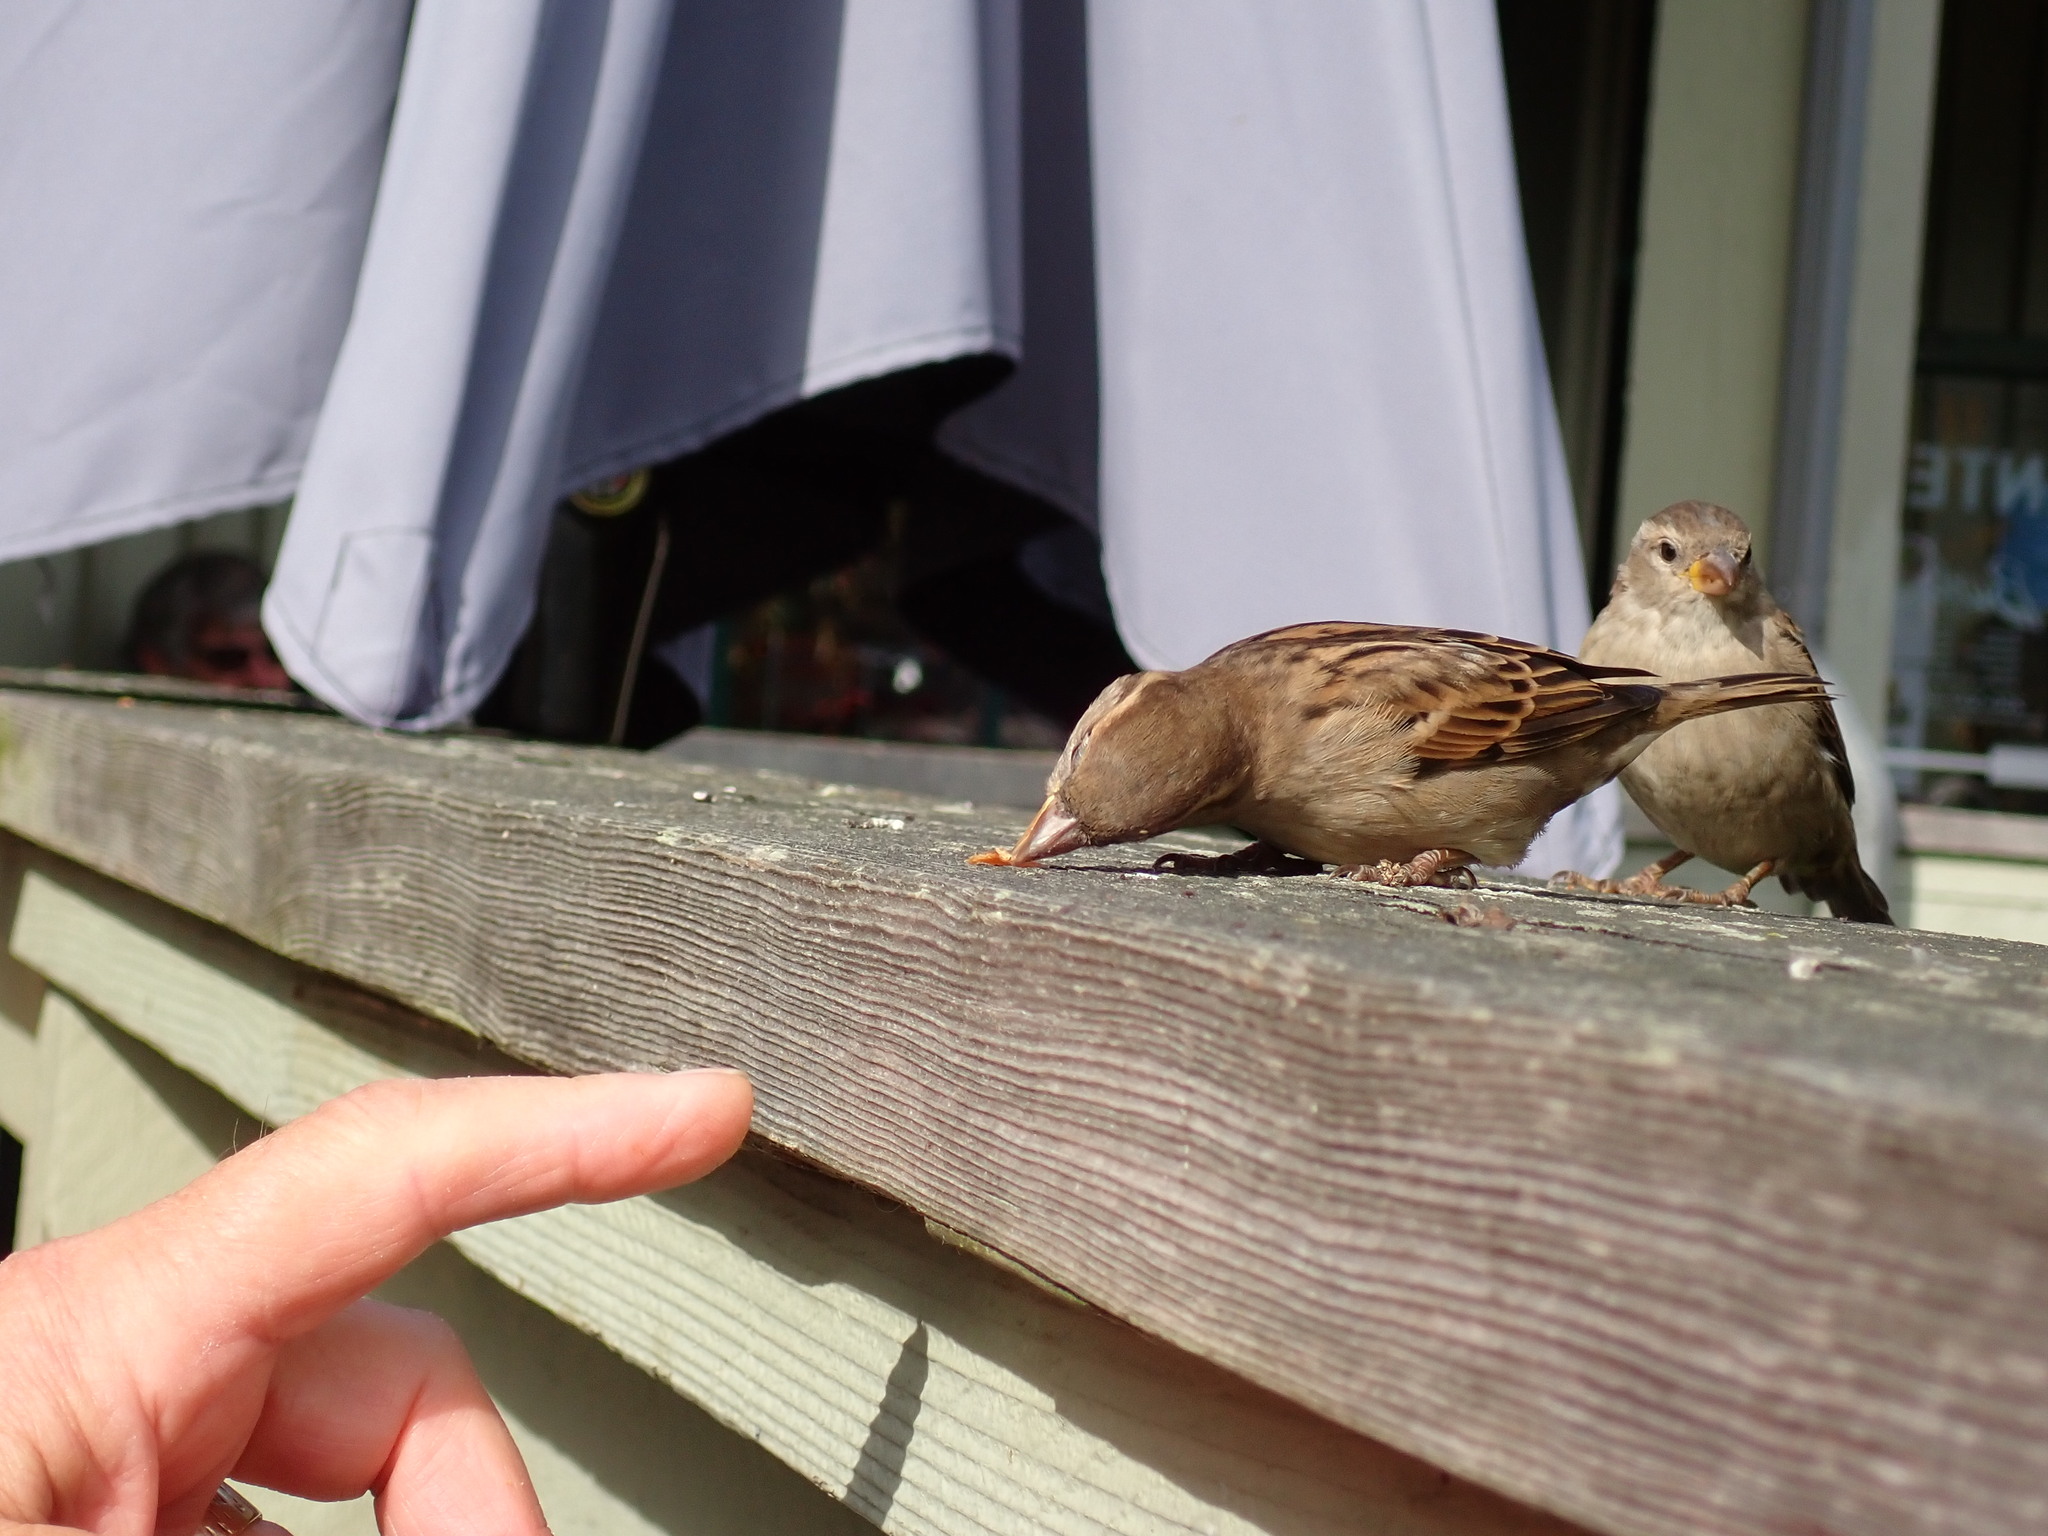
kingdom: Animalia
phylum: Chordata
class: Aves
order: Passeriformes
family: Passeridae
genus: Passer
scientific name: Passer domesticus
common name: House sparrow
